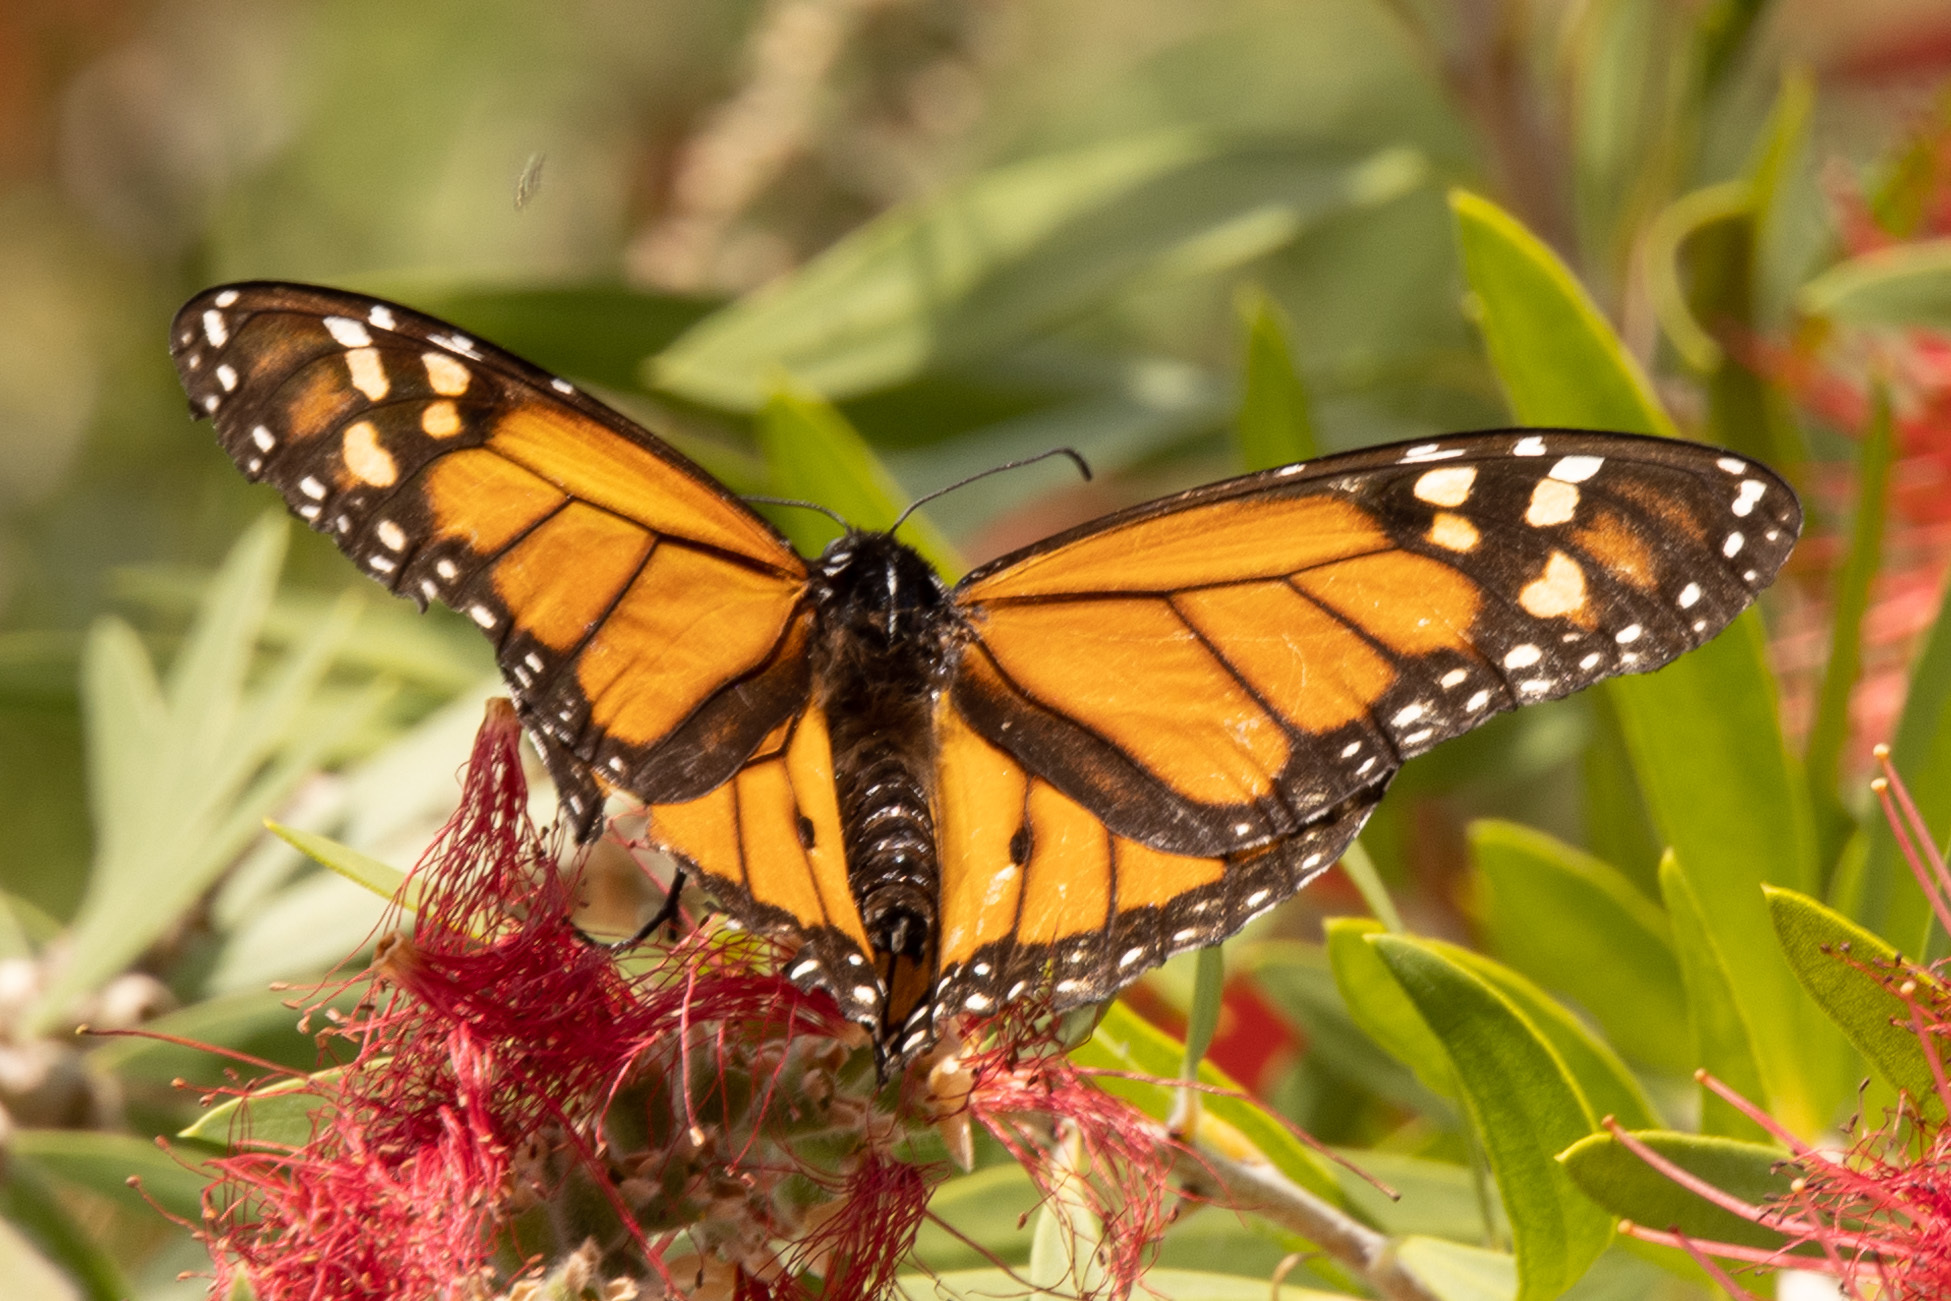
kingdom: Animalia
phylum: Arthropoda
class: Insecta
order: Lepidoptera
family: Nymphalidae
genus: Danaus
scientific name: Danaus plexippus
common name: Monarch
